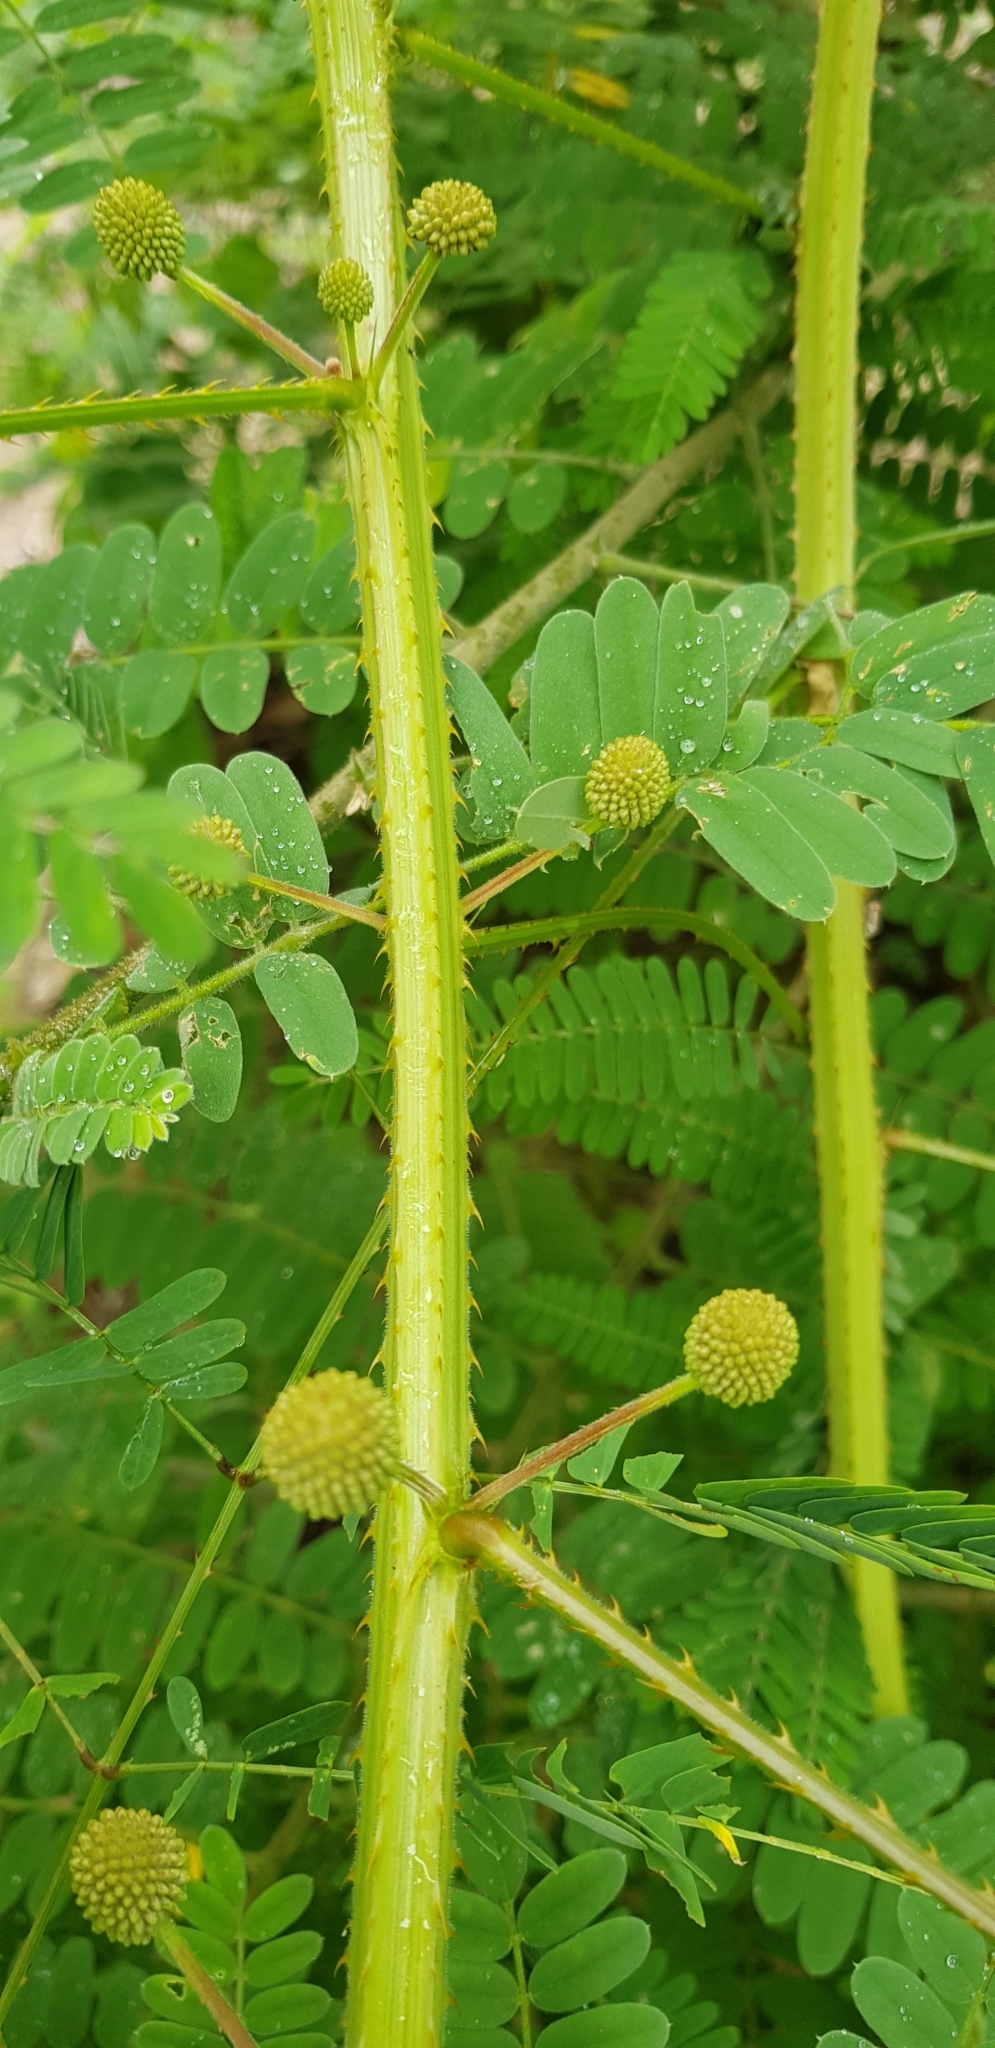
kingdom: Plantae
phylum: Tracheophyta
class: Magnoliopsida
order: Fabales
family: Fabaceae
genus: Mimosa
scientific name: Mimosa diplotricha
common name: Giant sensitive-plant
